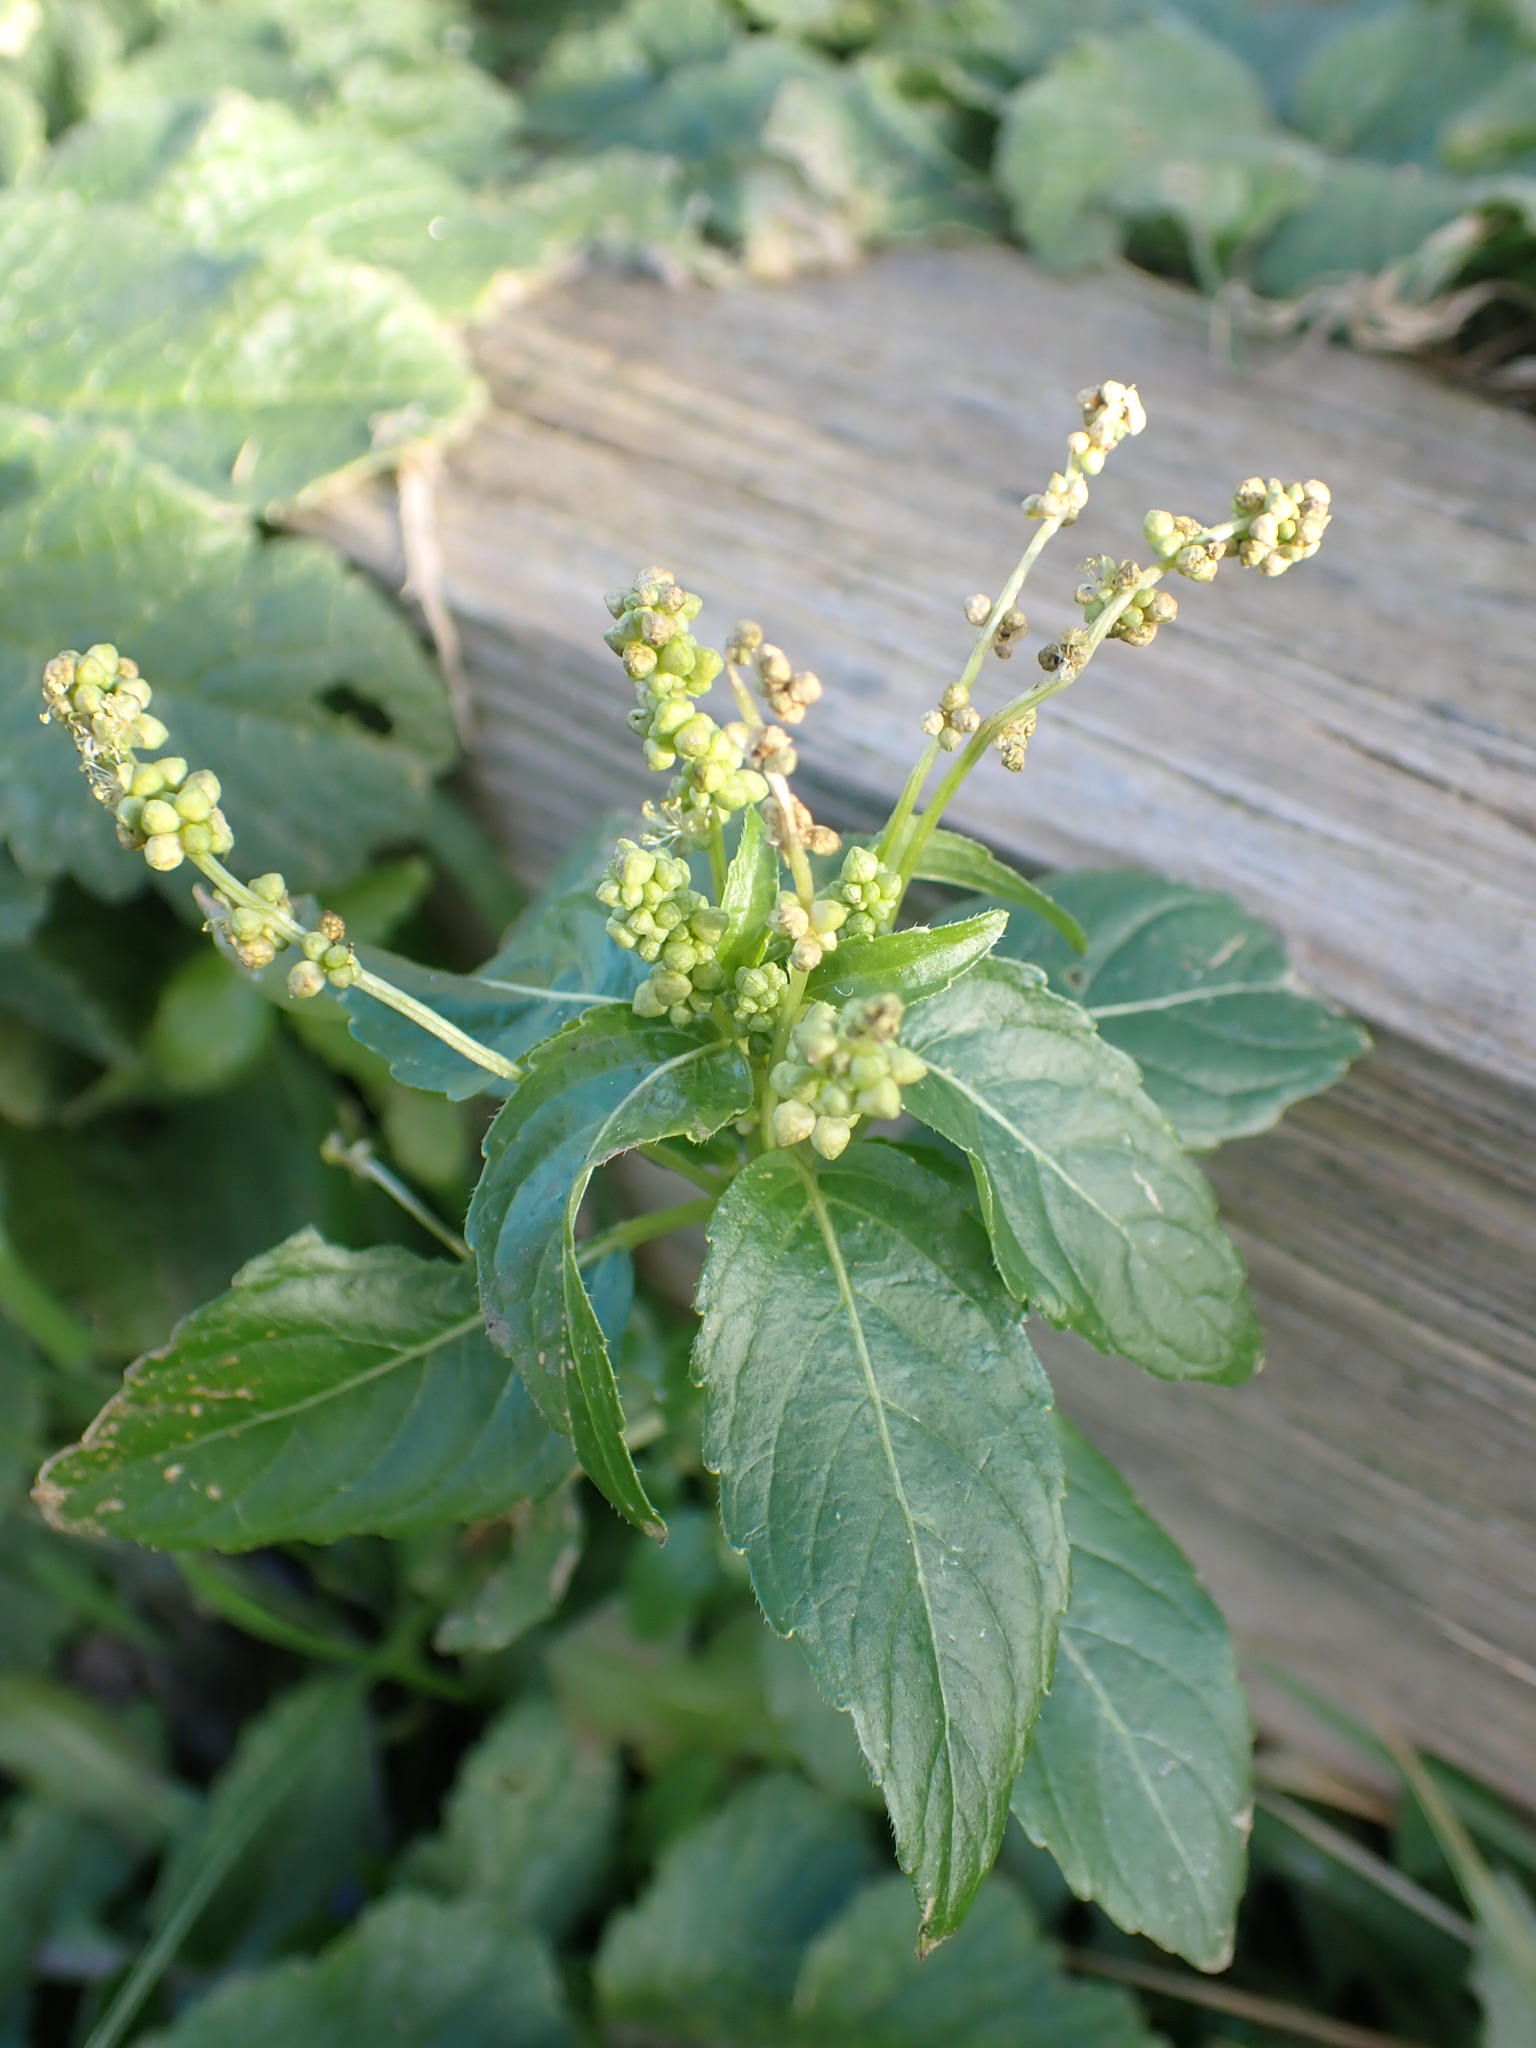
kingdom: Plantae
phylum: Tracheophyta
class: Magnoliopsida
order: Malpighiales
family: Euphorbiaceae
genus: Mercurialis
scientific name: Mercurialis annua
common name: Annual mercury
